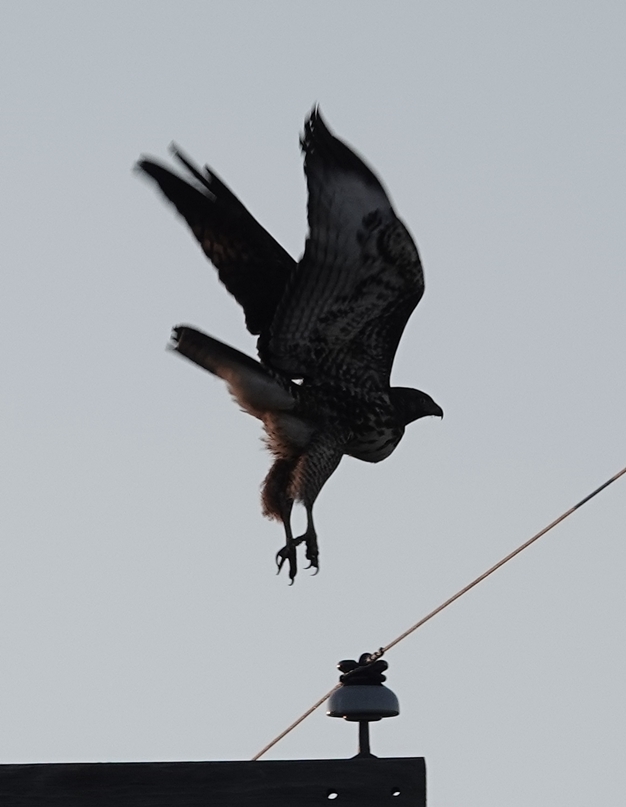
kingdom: Animalia
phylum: Chordata
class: Aves
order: Accipitriformes
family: Accipitridae
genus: Buteo
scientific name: Buteo jamaicensis
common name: Red-tailed hawk
